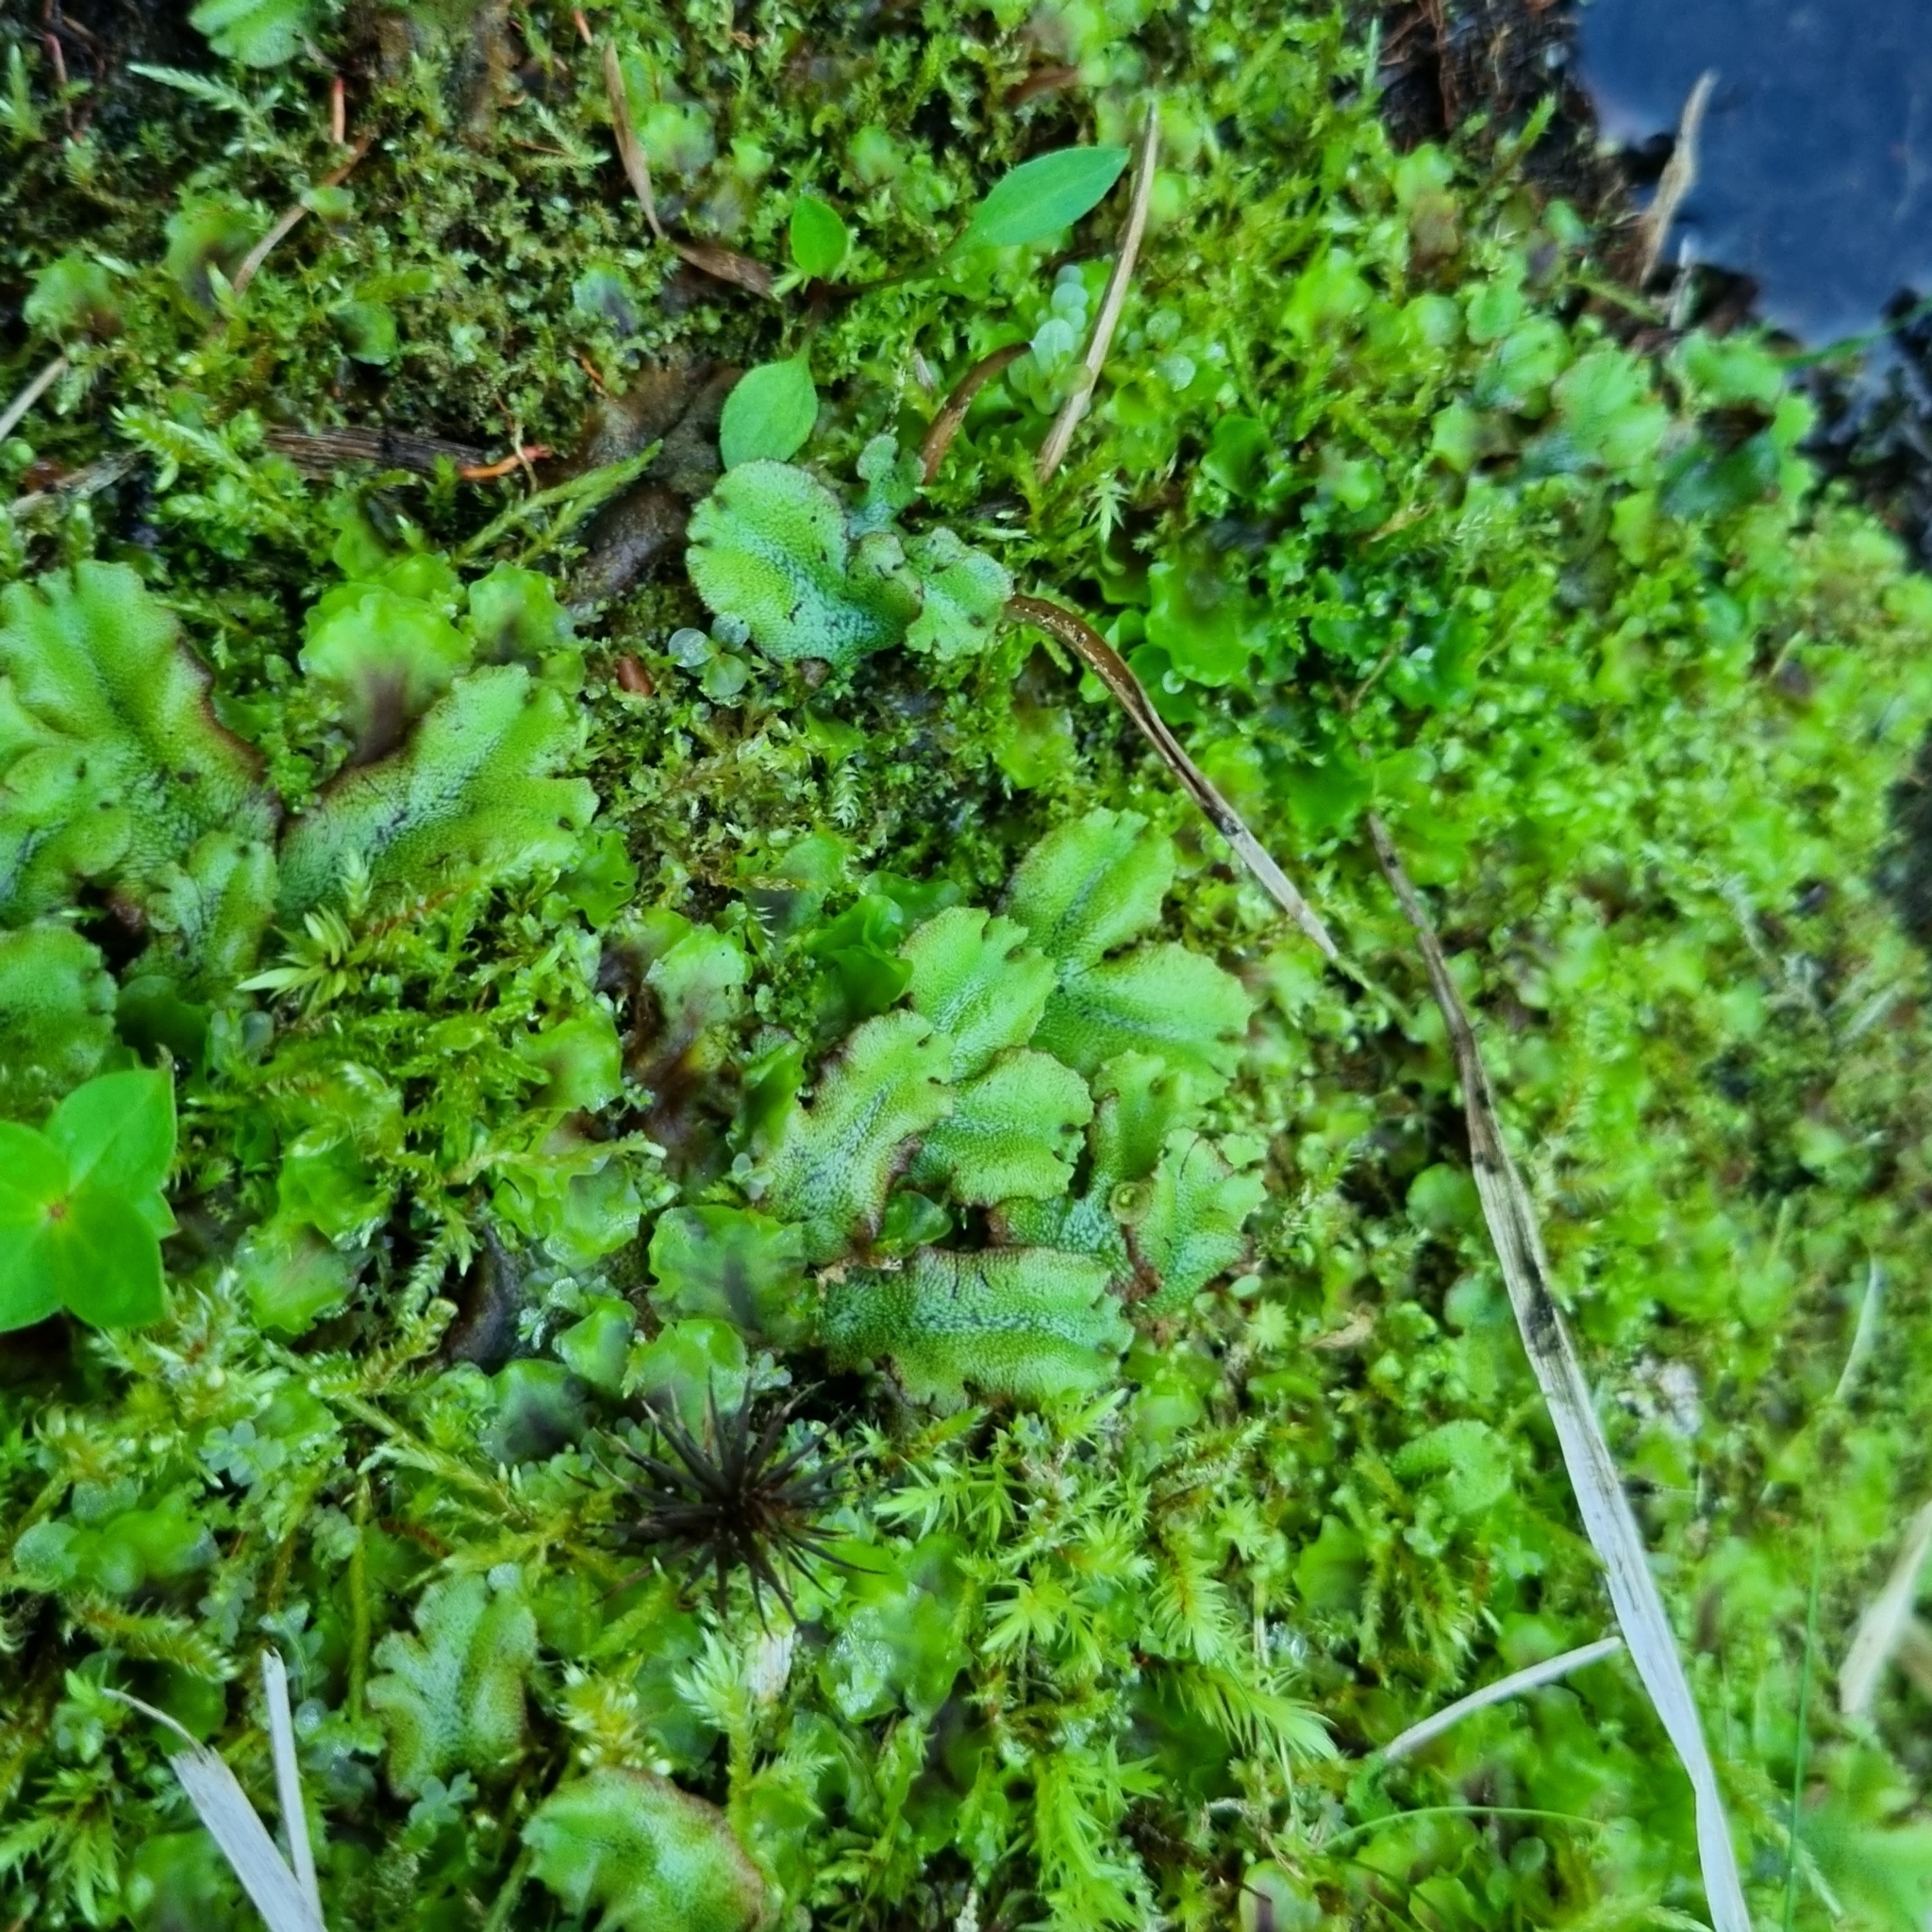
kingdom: Plantae
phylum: Marchantiophyta
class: Marchantiopsida
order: Marchantiales
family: Marchantiaceae
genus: Marchantia
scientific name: Marchantia polymorpha
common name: Common liverwort
